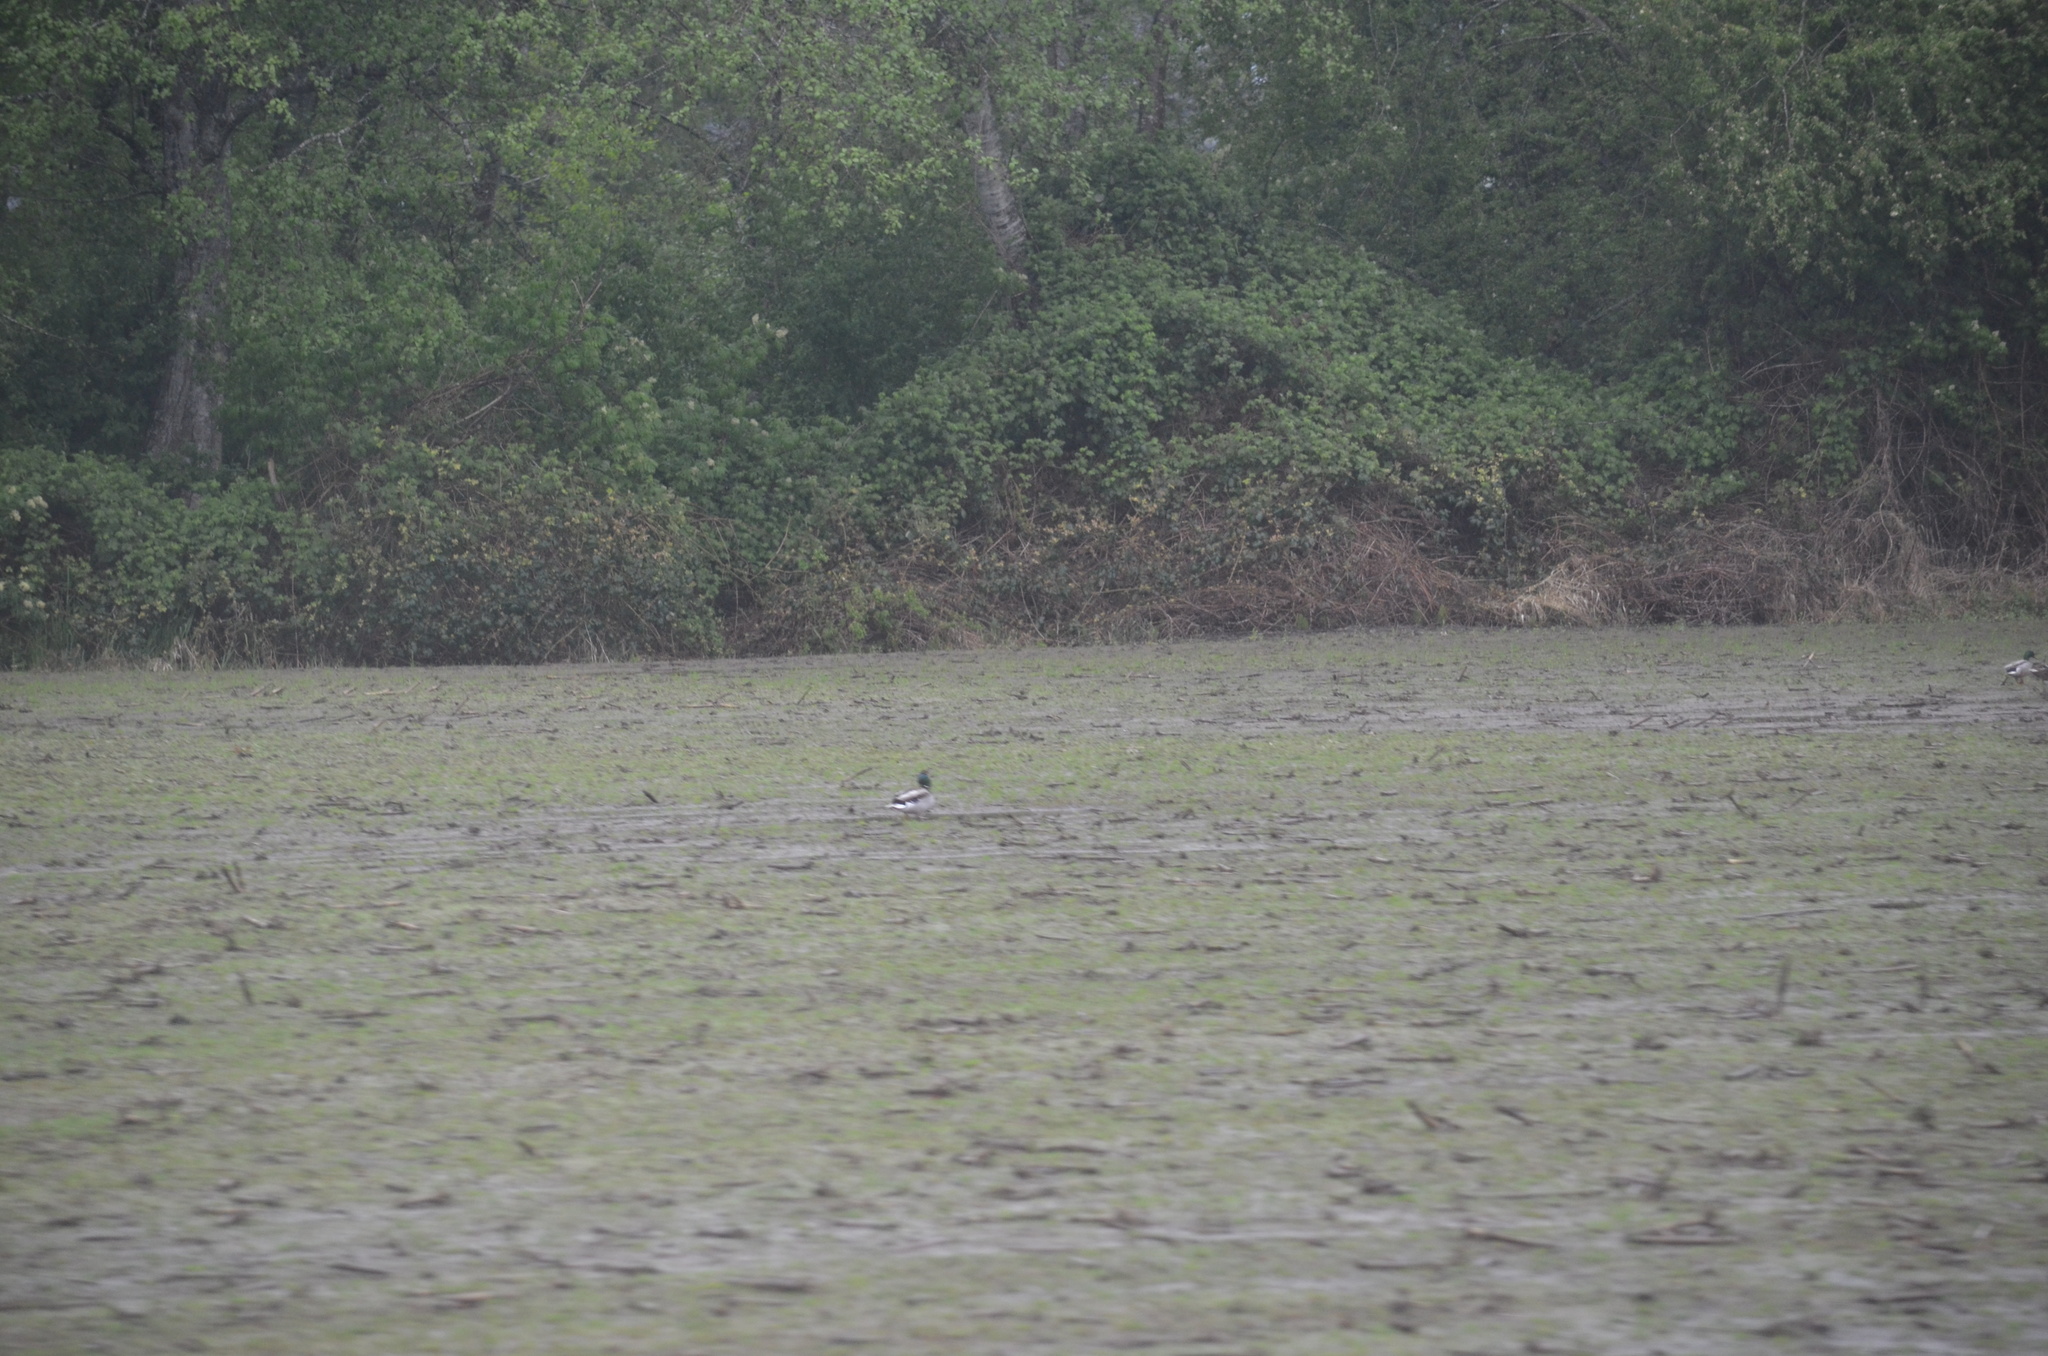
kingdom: Animalia
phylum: Chordata
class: Aves
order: Anseriformes
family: Anatidae
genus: Anas
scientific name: Anas platyrhynchos
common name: Mallard
